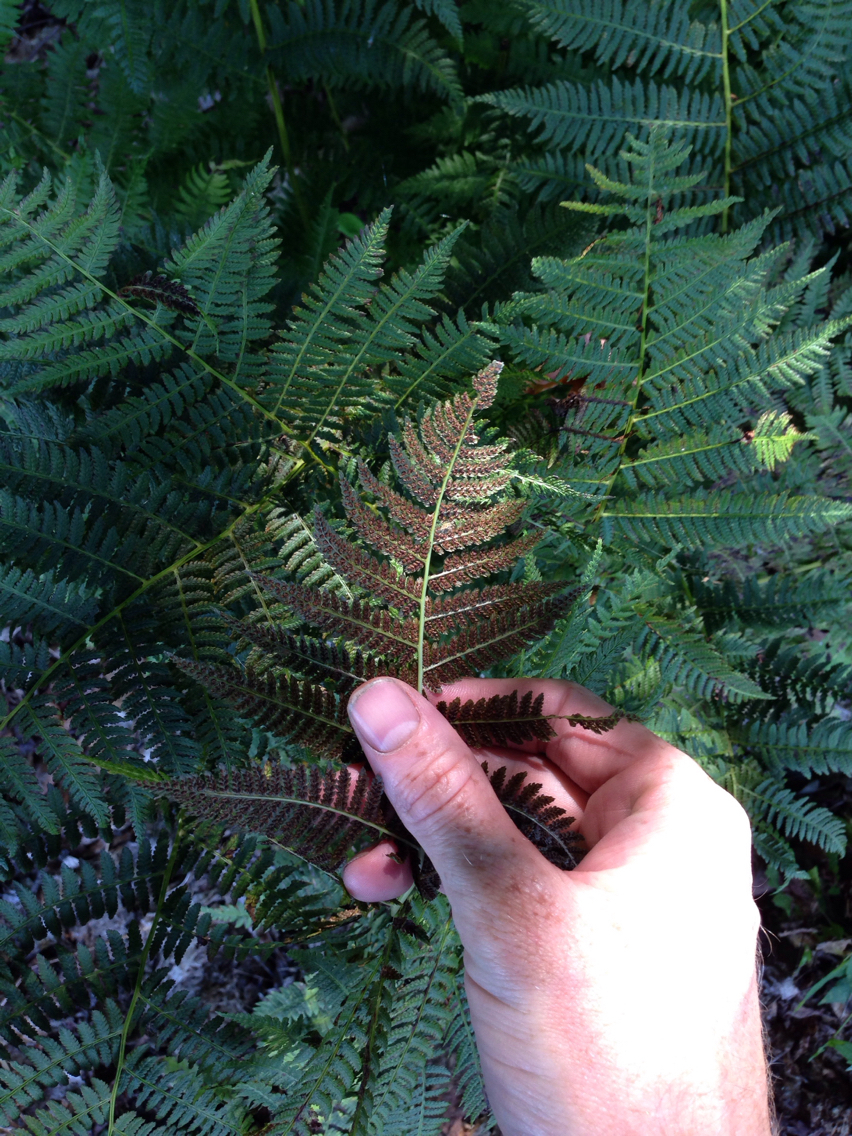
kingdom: Plantae
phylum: Tracheophyta
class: Polypodiopsida
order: Polypodiales
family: Athyriaceae
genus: Athyrium
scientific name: Athyrium angustum
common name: Northern lady fern
